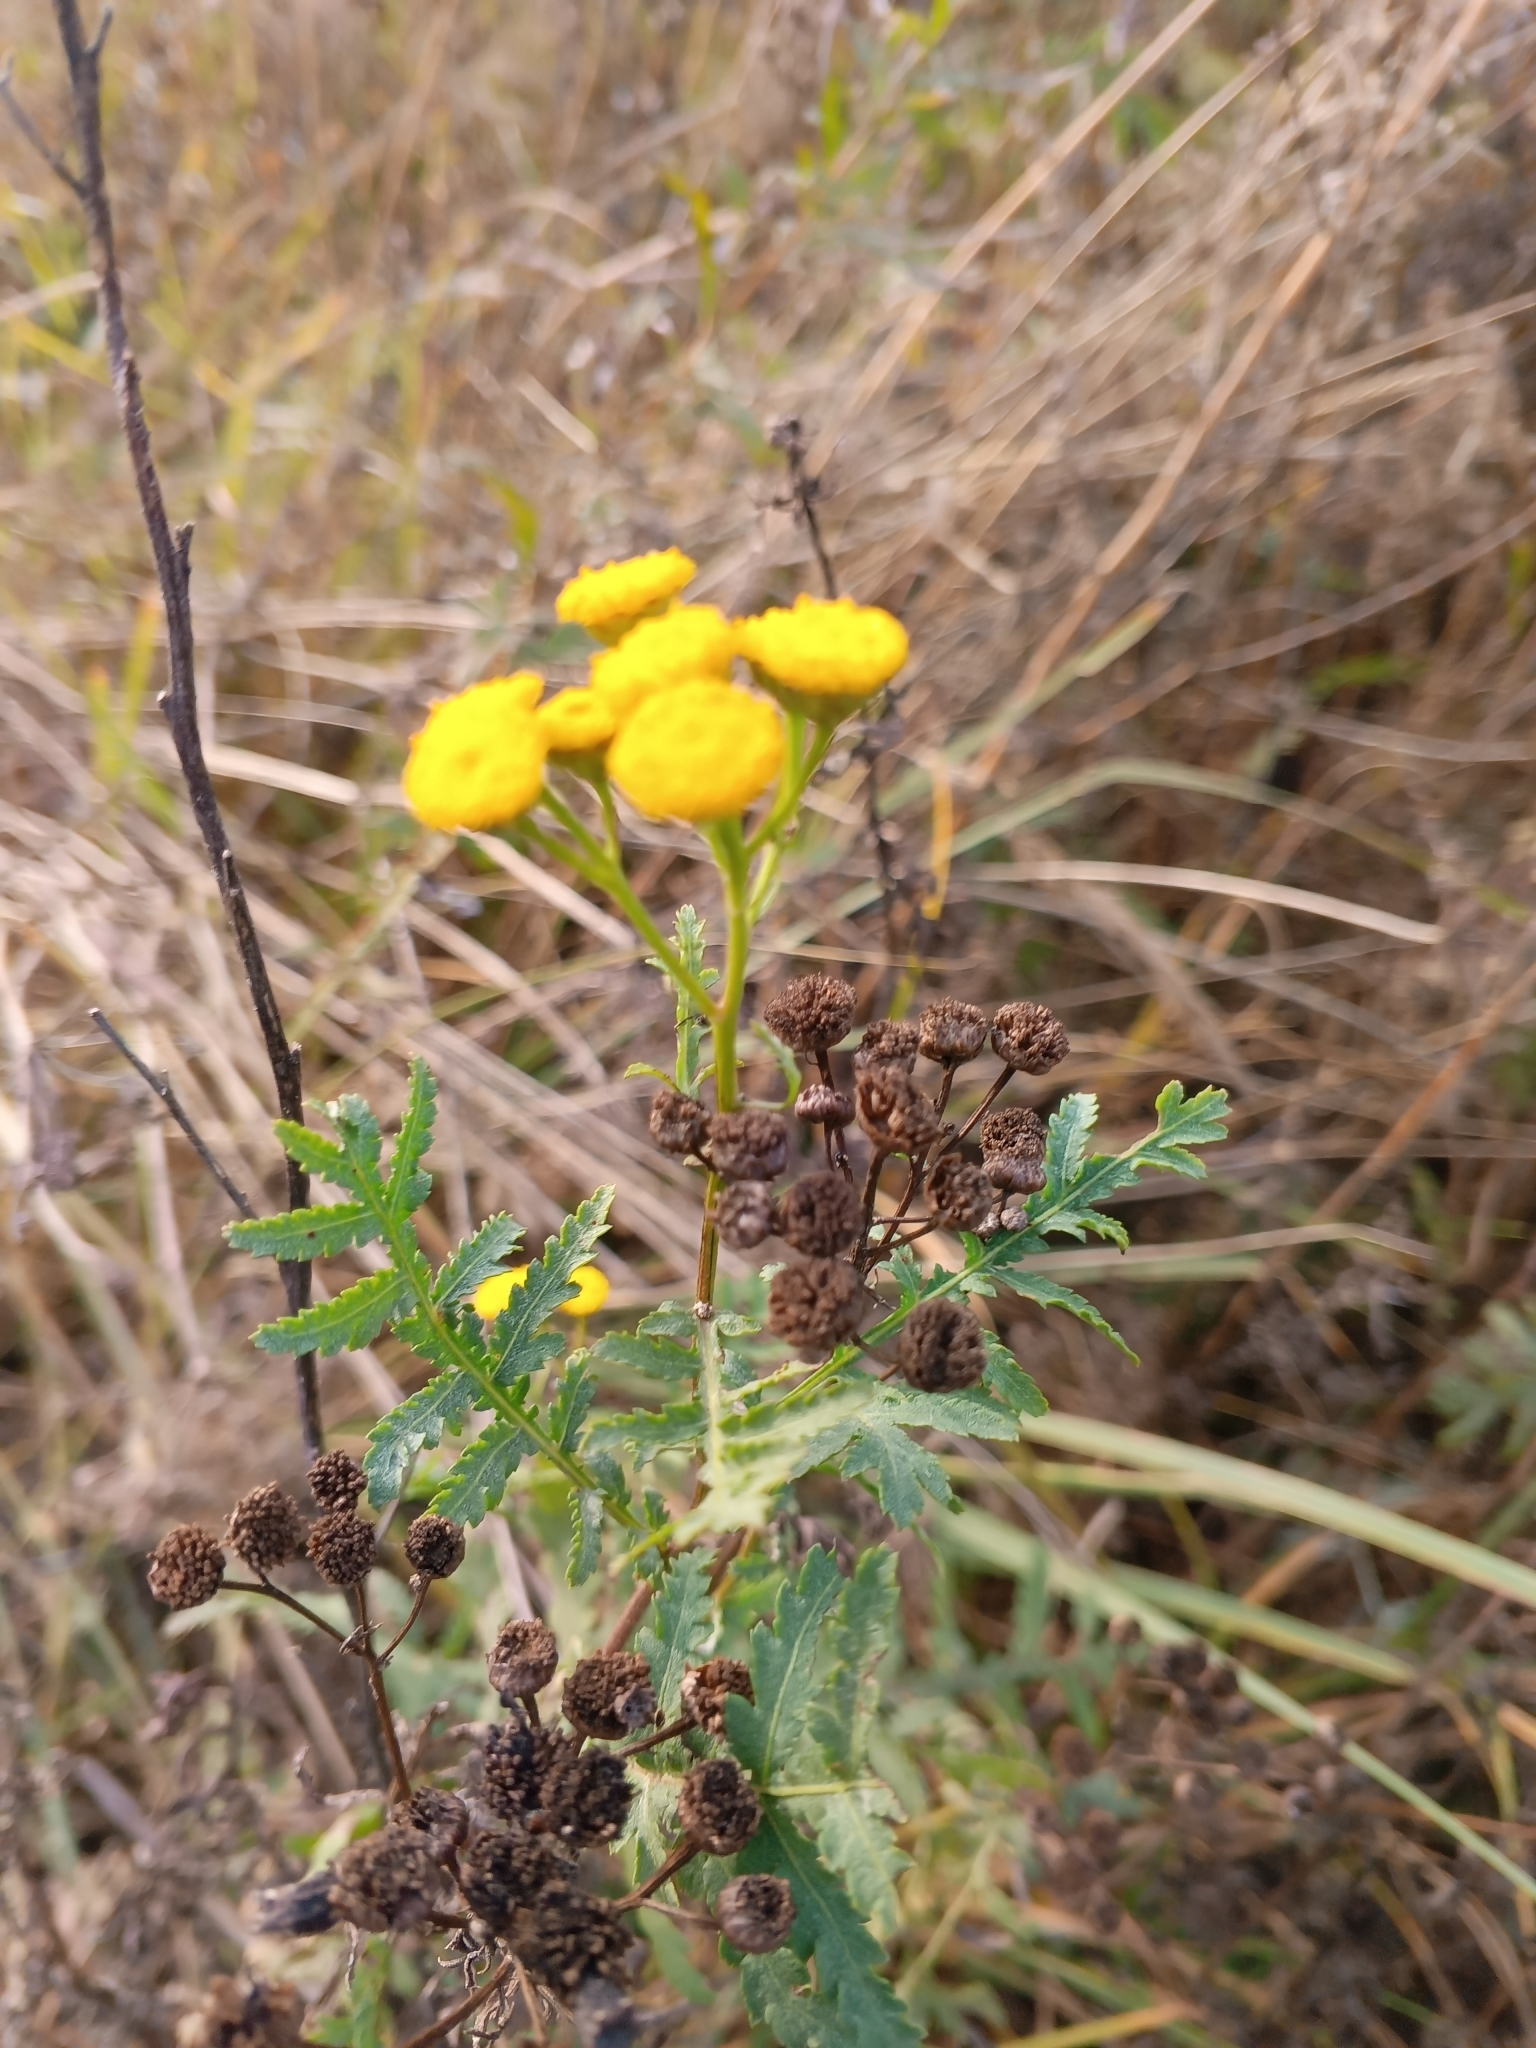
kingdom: Plantae
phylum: Tracheophyta
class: Magnoliopsida
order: Asterales
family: Asteraceae
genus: Tanacetum
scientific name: Tanacetum vulgare
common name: Common tansy
